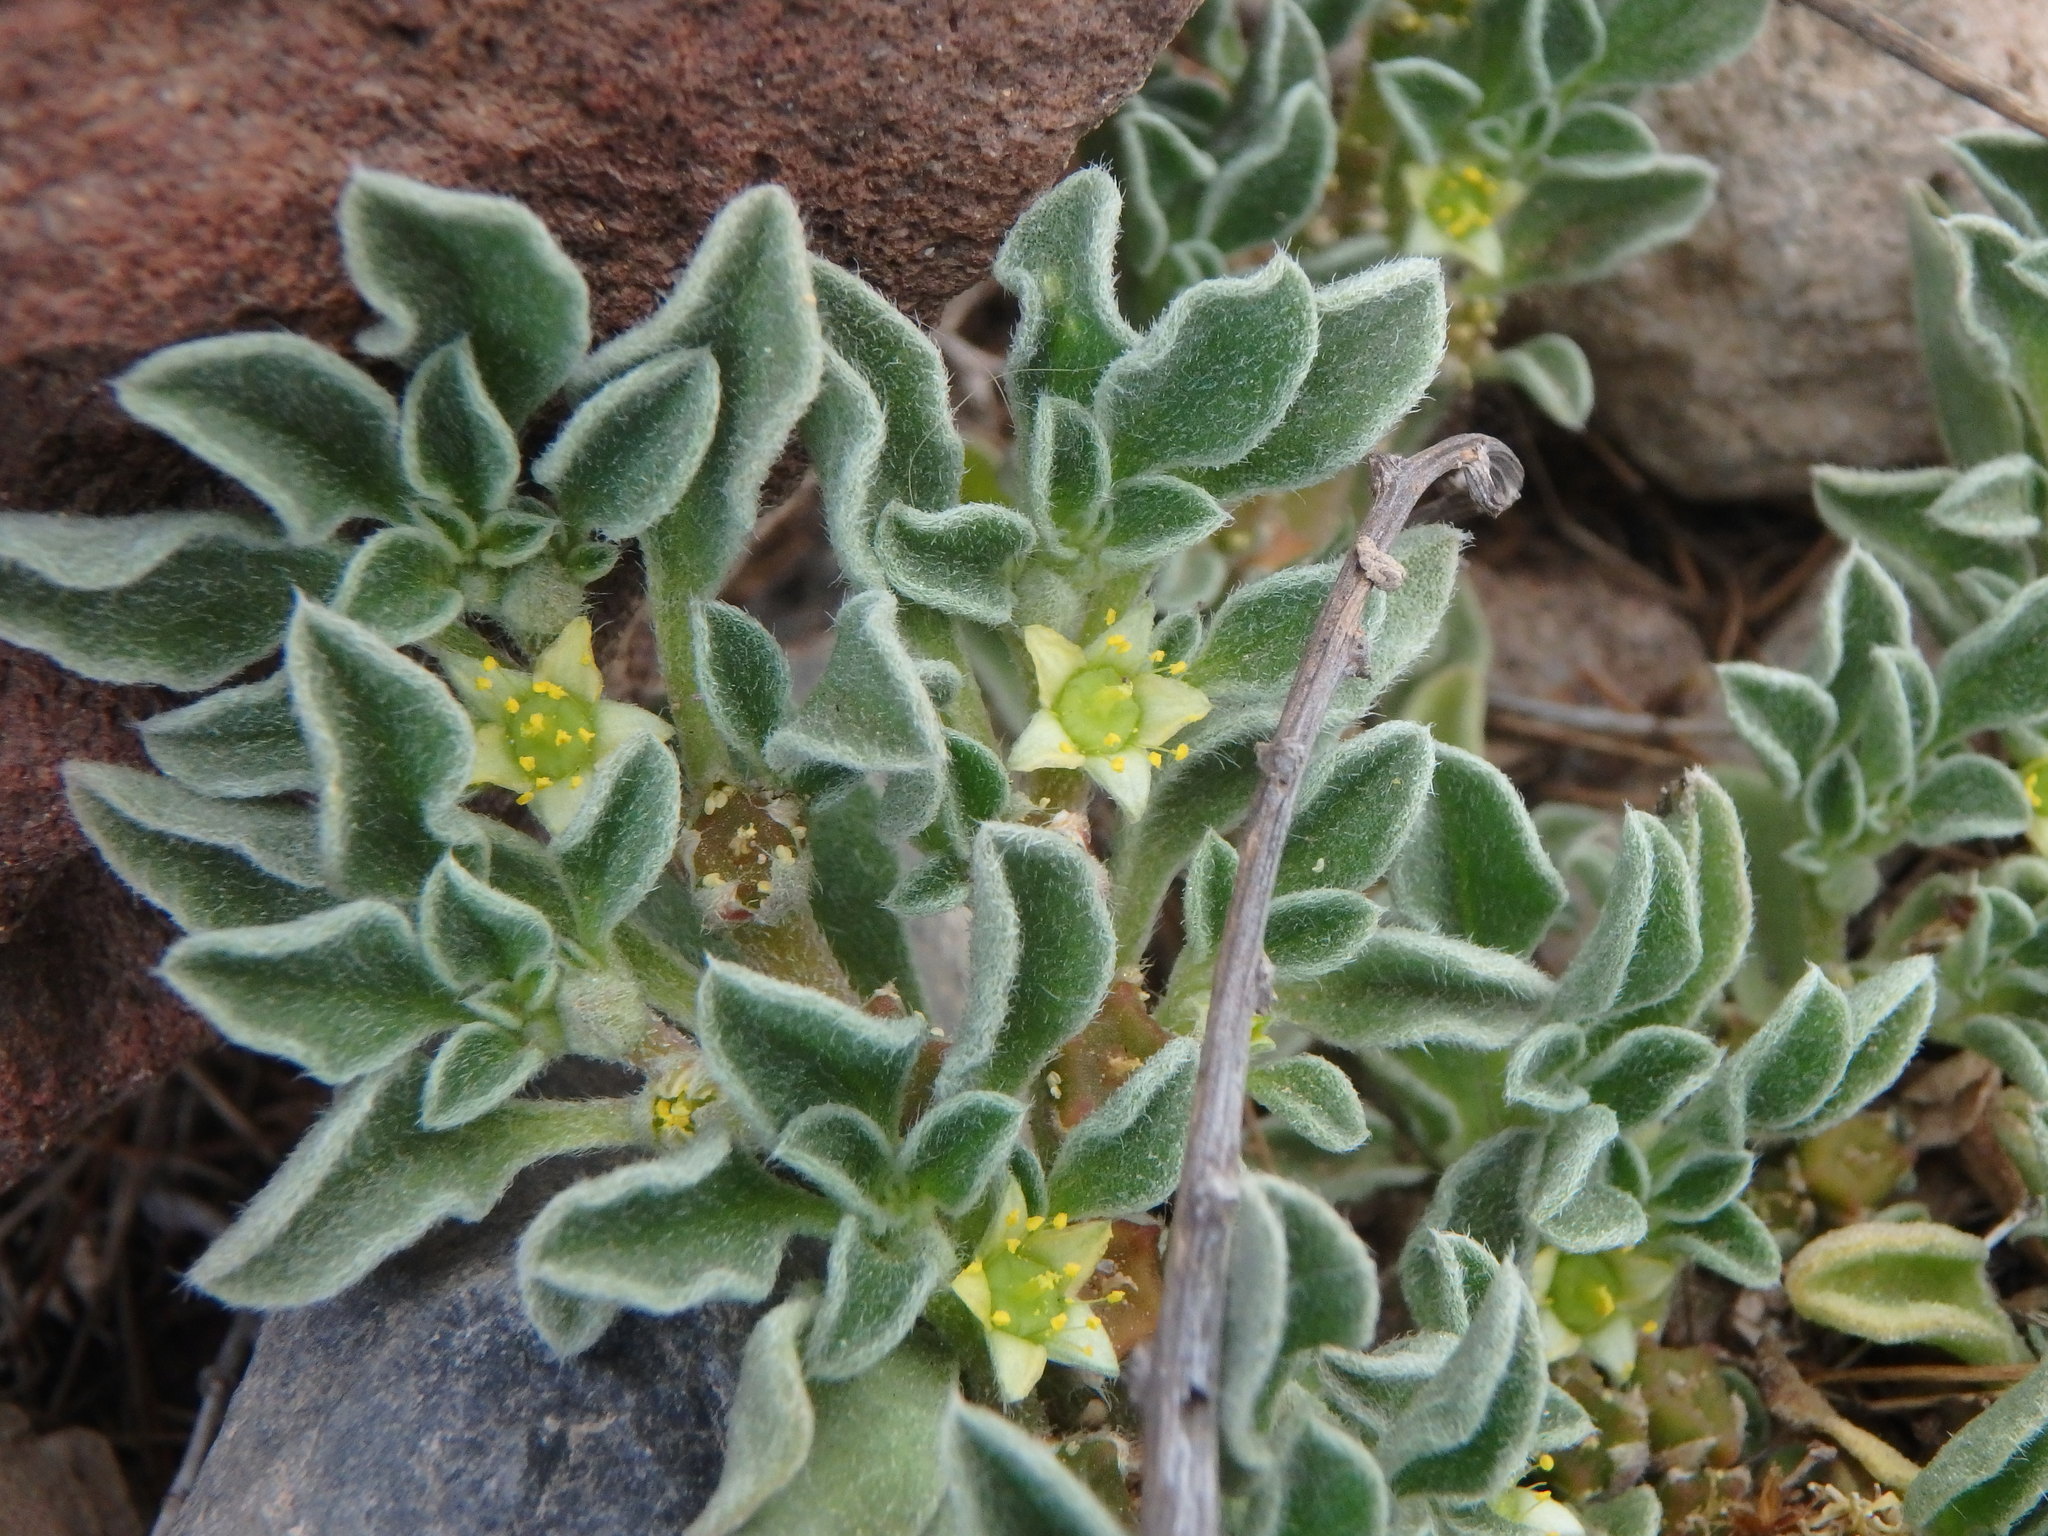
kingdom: Plantae
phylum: Tracheophyta
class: Magnoliopsida
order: Caryophyllales
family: Aizoaceae
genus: Aizoon
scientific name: Aizoon canariense
